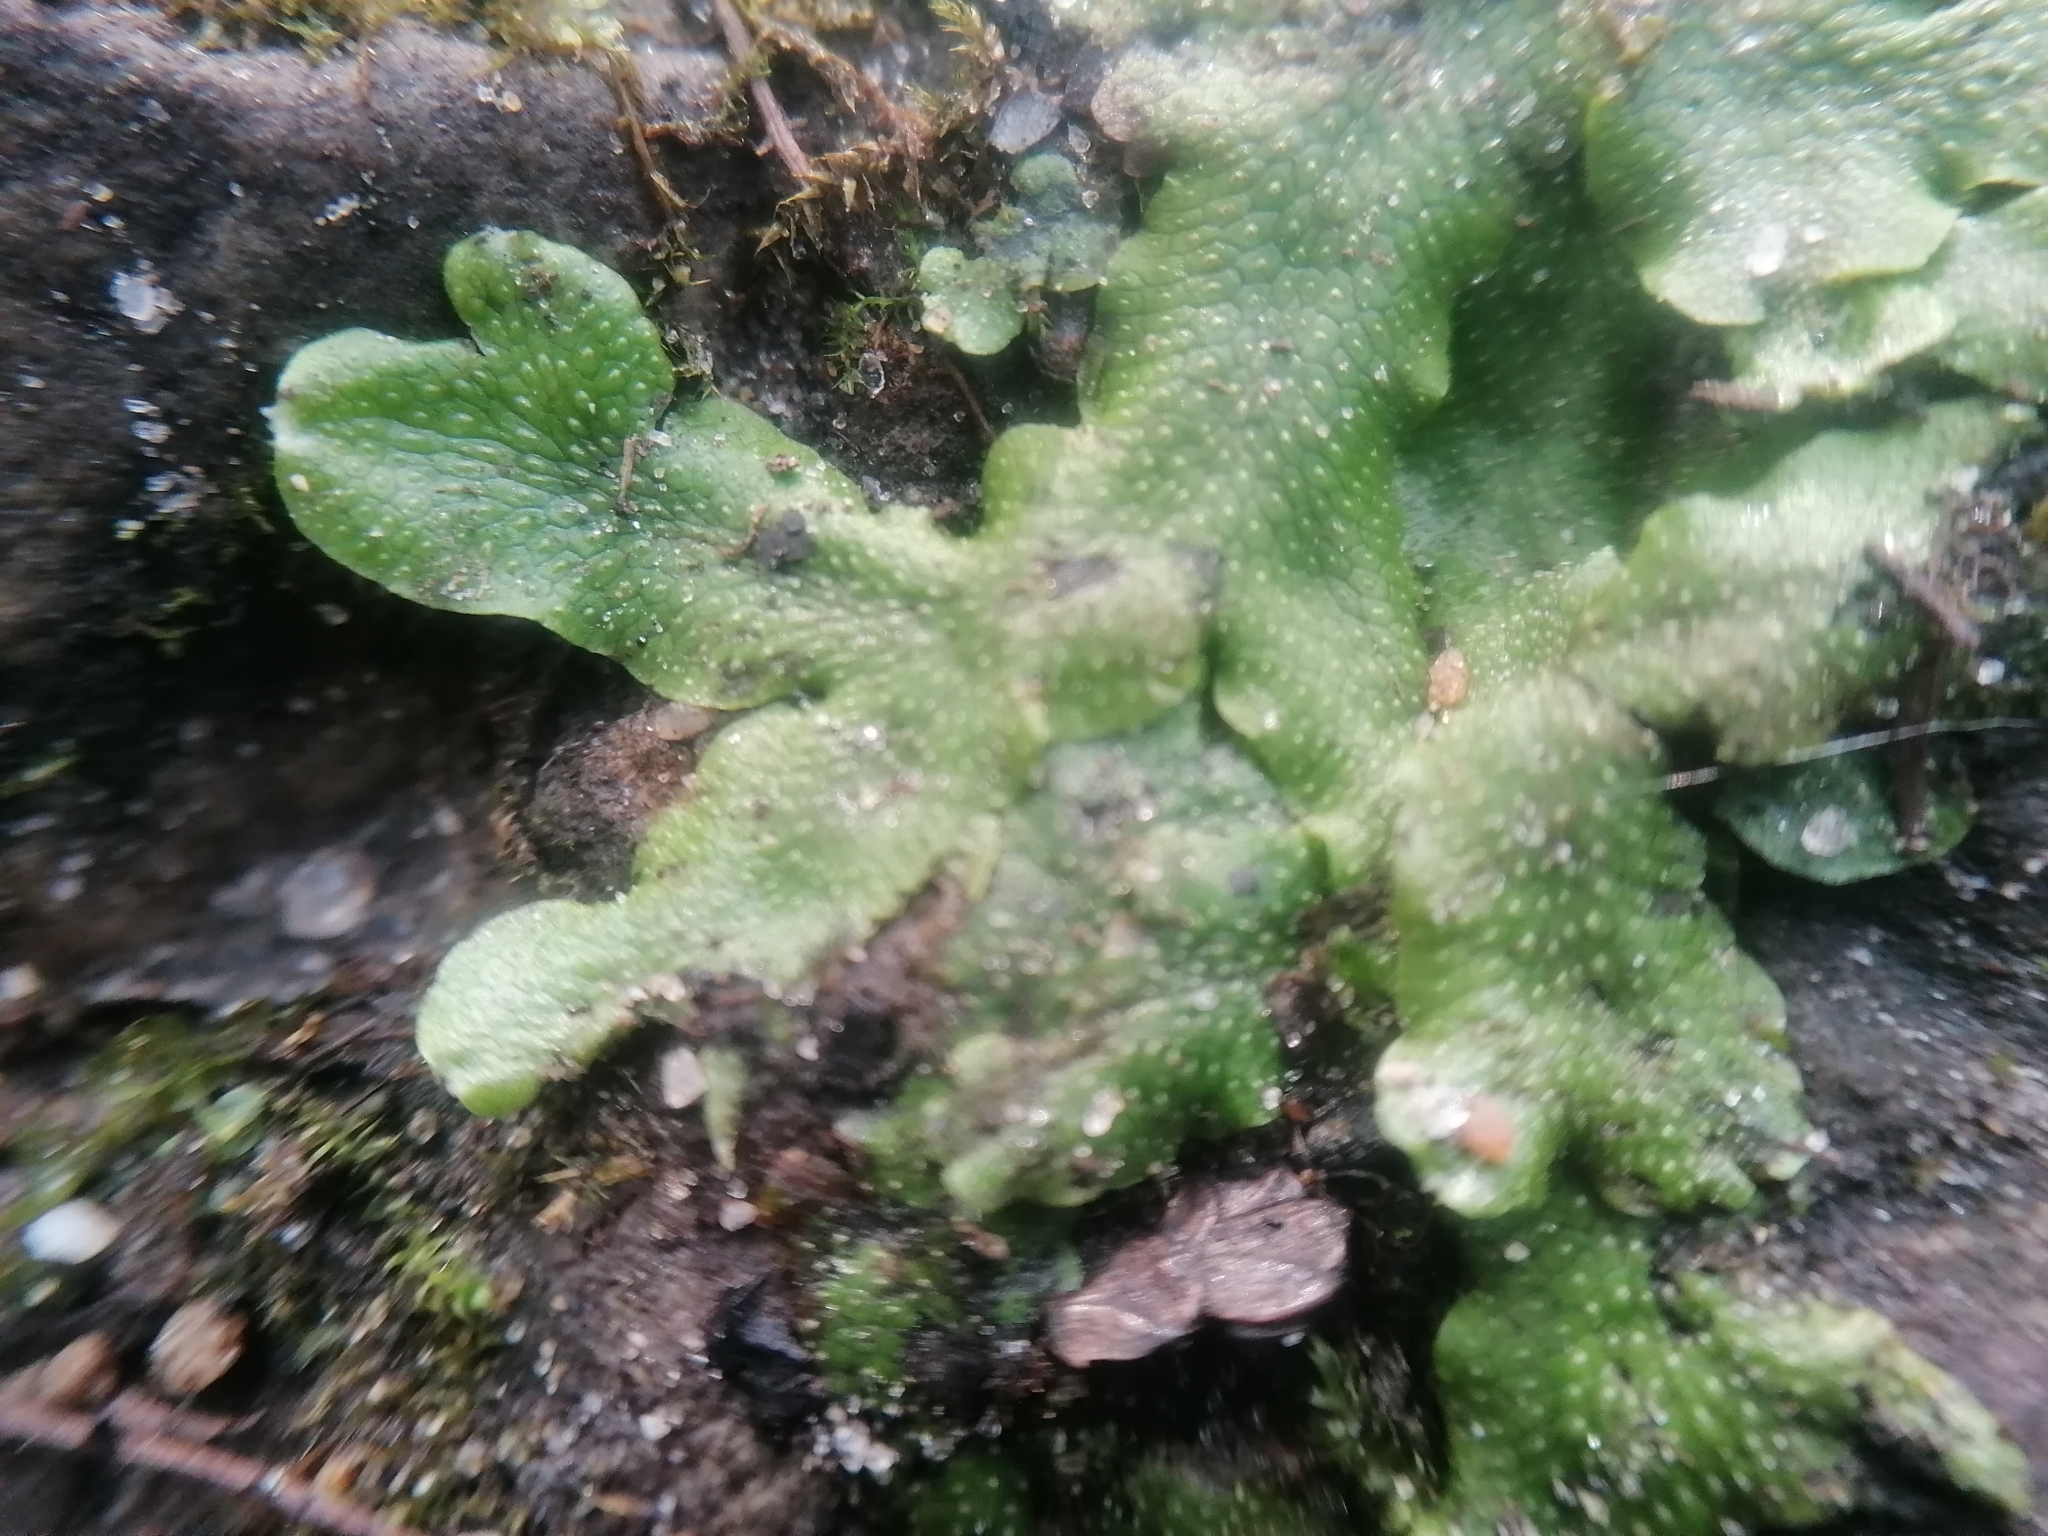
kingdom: Plantae
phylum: Marchantiophyta
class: Marchantiopsida
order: Marchantiales
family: Conocephalaceae
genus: Conocephalum
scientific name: Conocephalum salebrosum
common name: Cat-tongue liverwort
